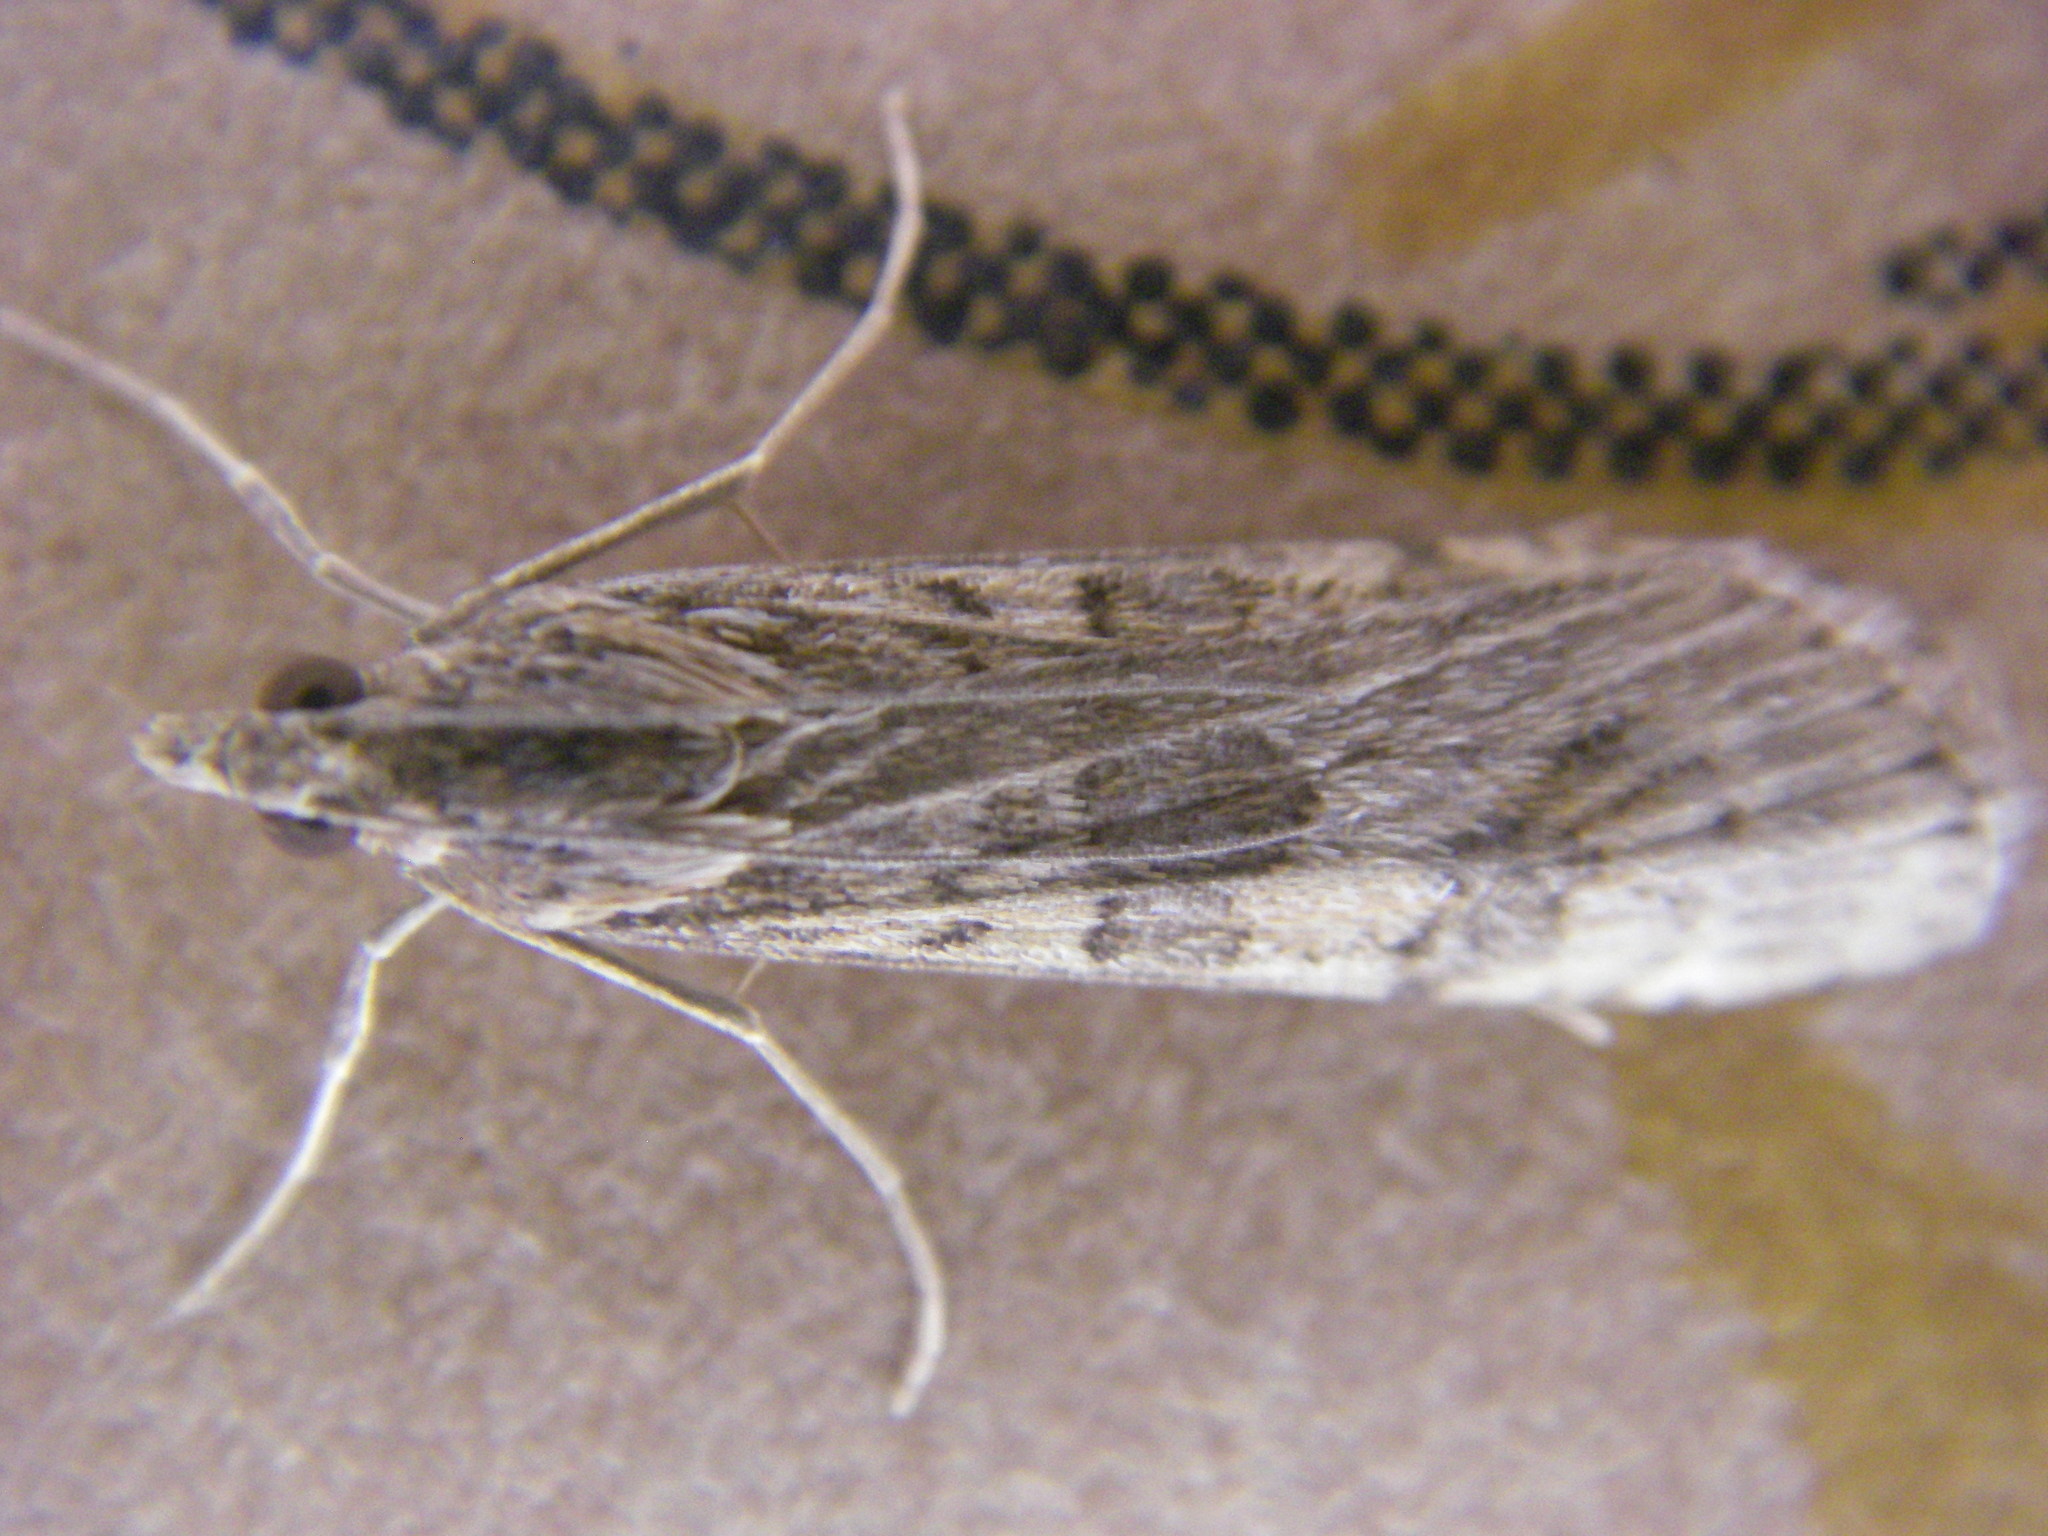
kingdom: Animalia
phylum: Arthropoda
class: Insecta
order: Lepidoptera
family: Crambidae
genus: Nomophila
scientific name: Nomophila noctuella
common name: Rush veneer
